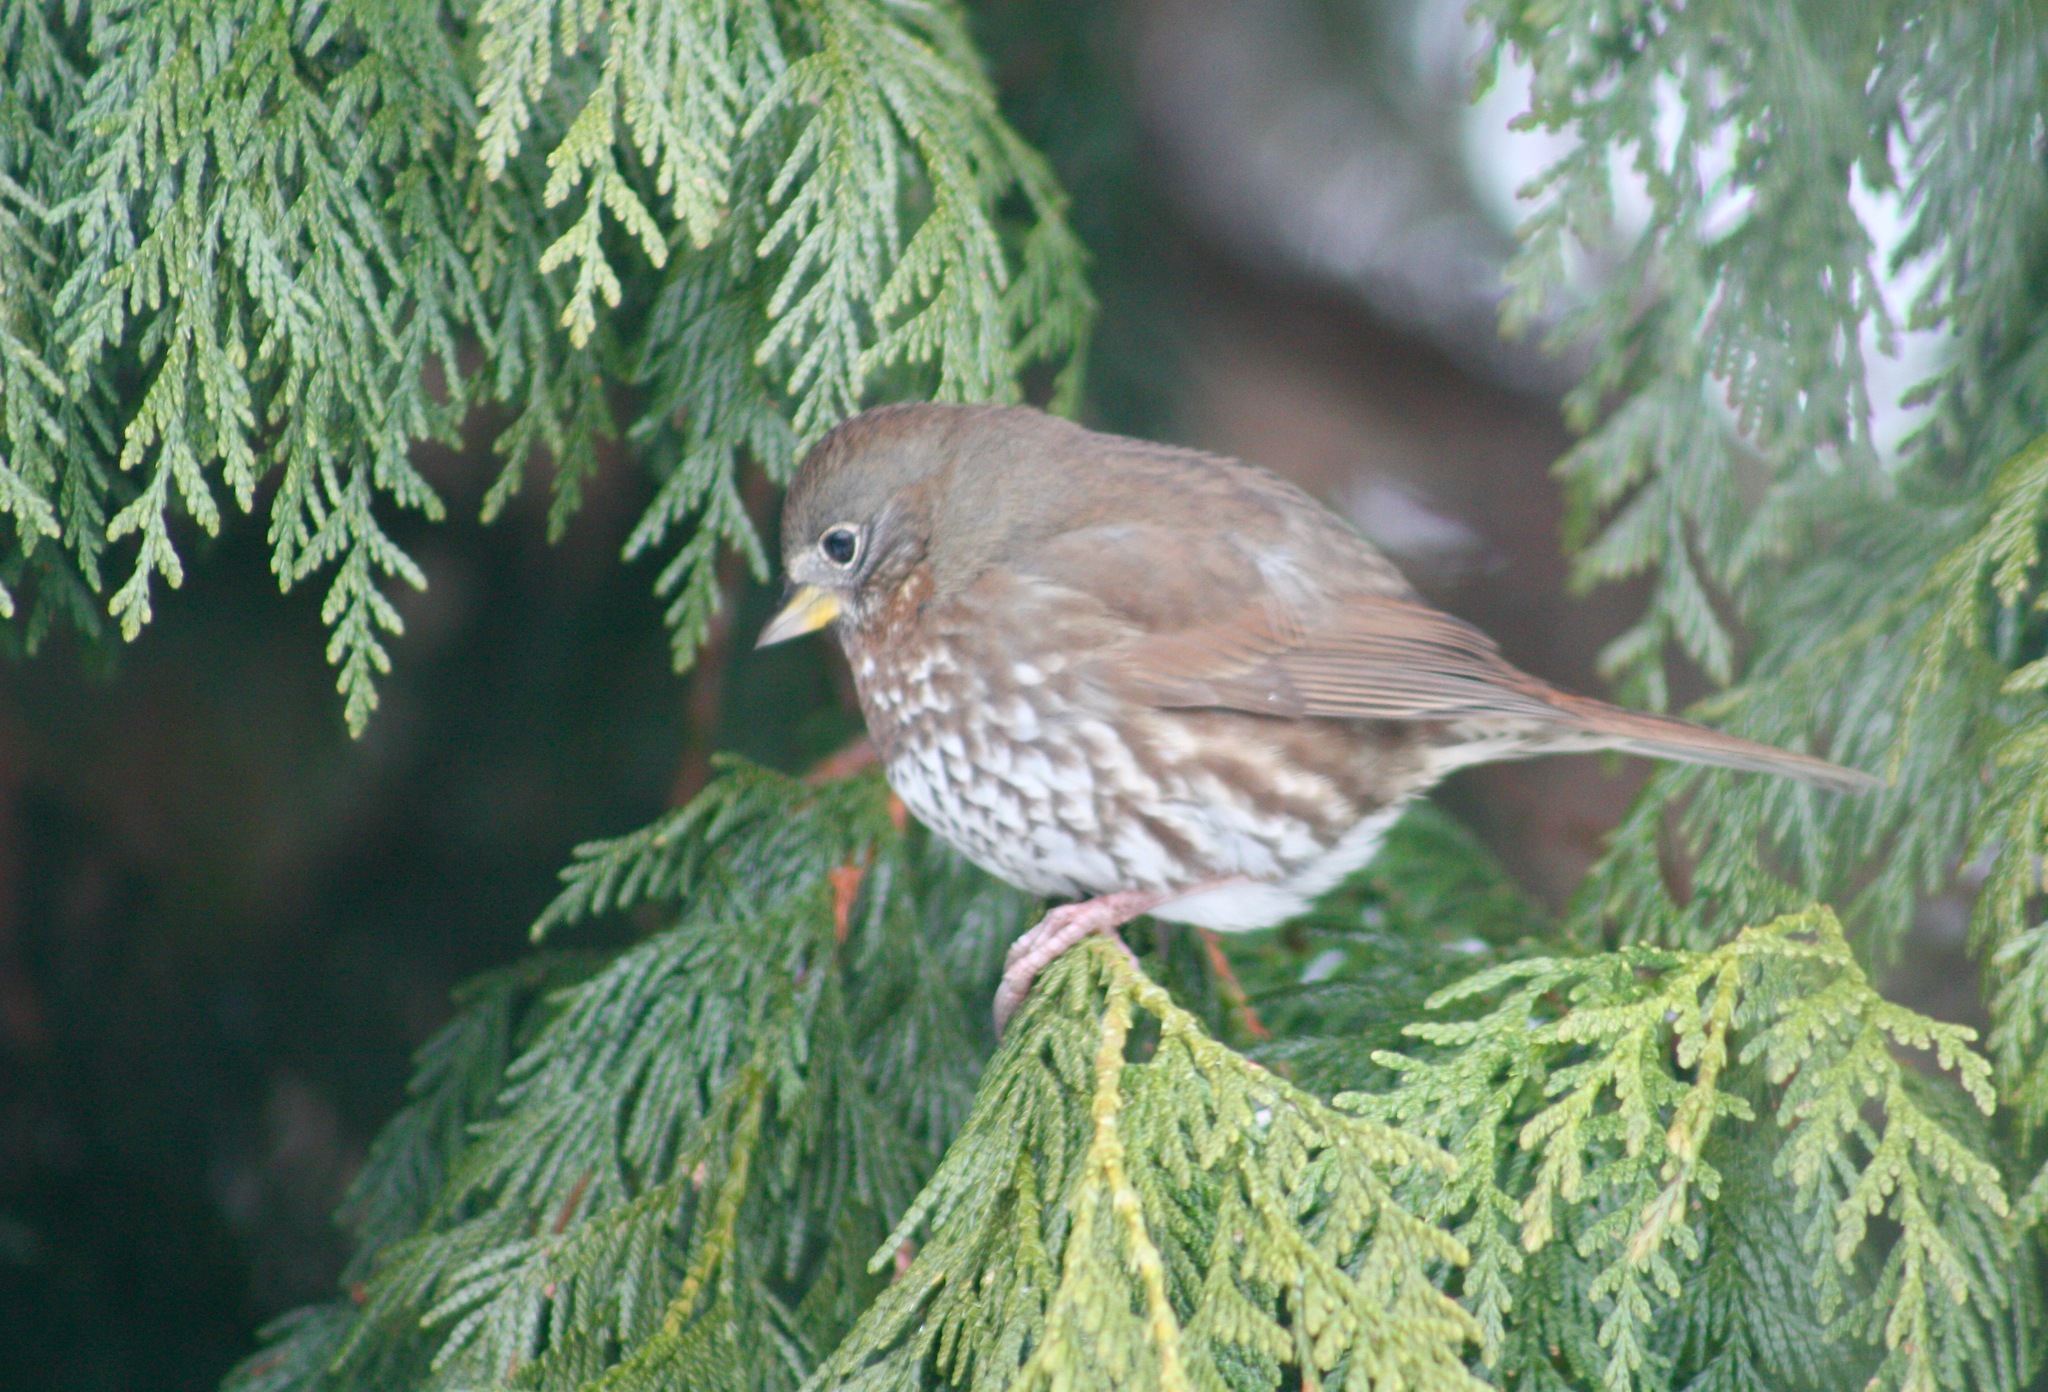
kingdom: Animalia
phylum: Chordata
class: Aves
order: Passeriformes
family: Passerellidae
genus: Passerella
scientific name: Passerella iliaca
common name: Fox sparrow
